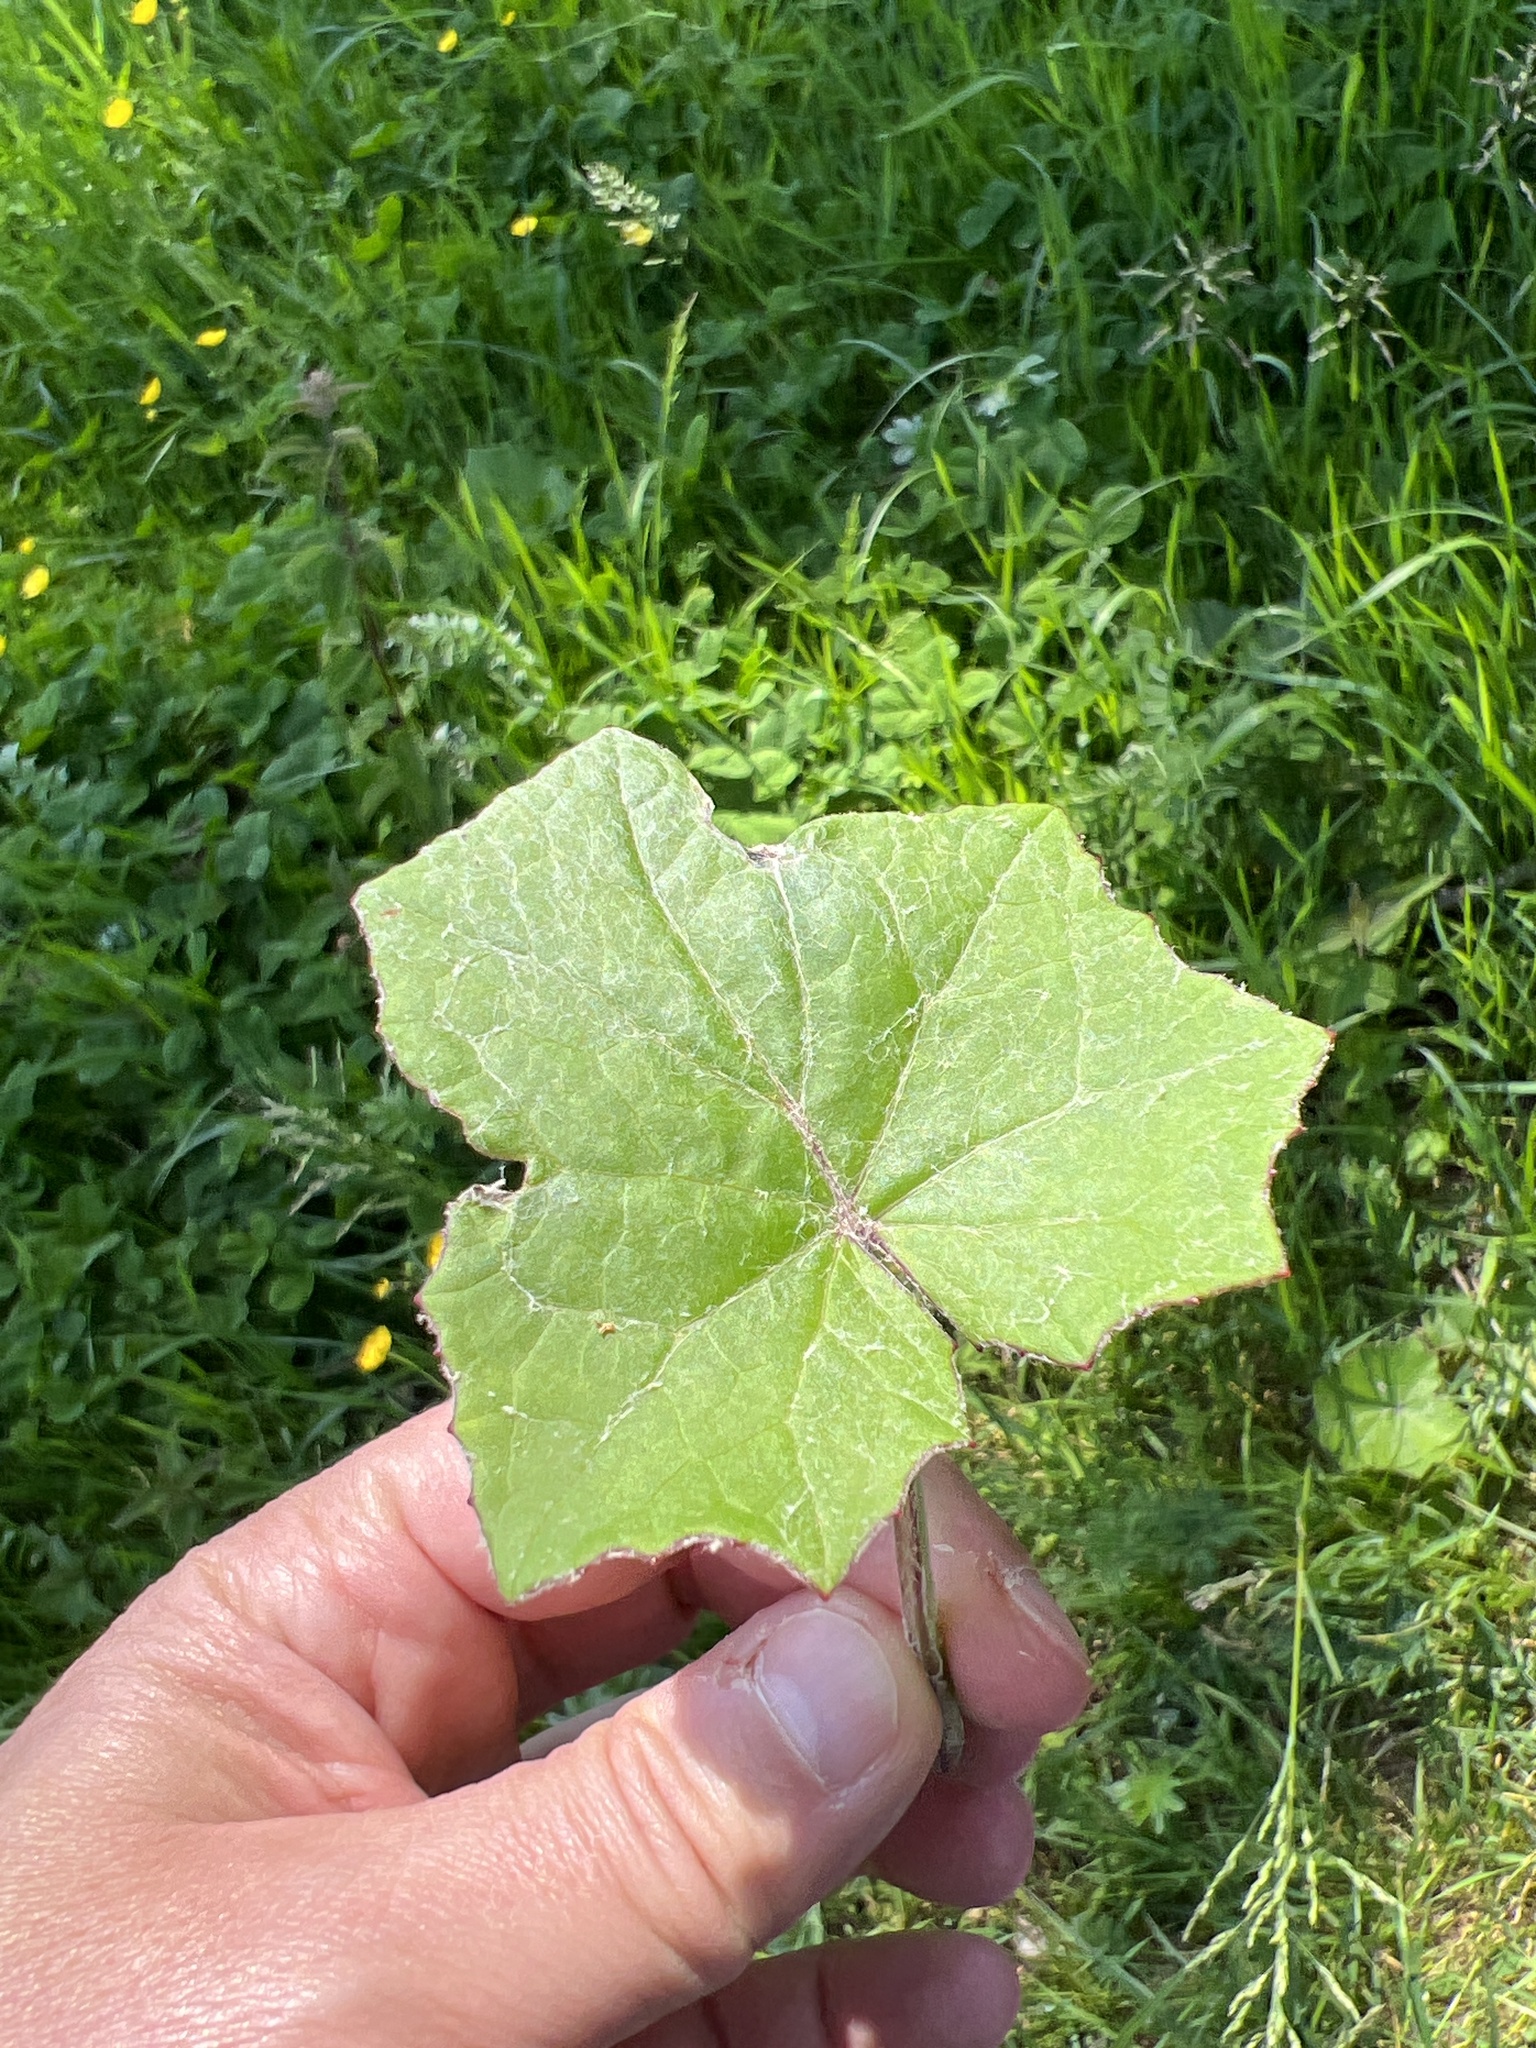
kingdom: Plantae
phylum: Tracheophyta
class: Magnoliopsida
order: Asterales
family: Asteraceae
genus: Tussilago
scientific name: Tussilago farfara
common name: Coltsfoot
